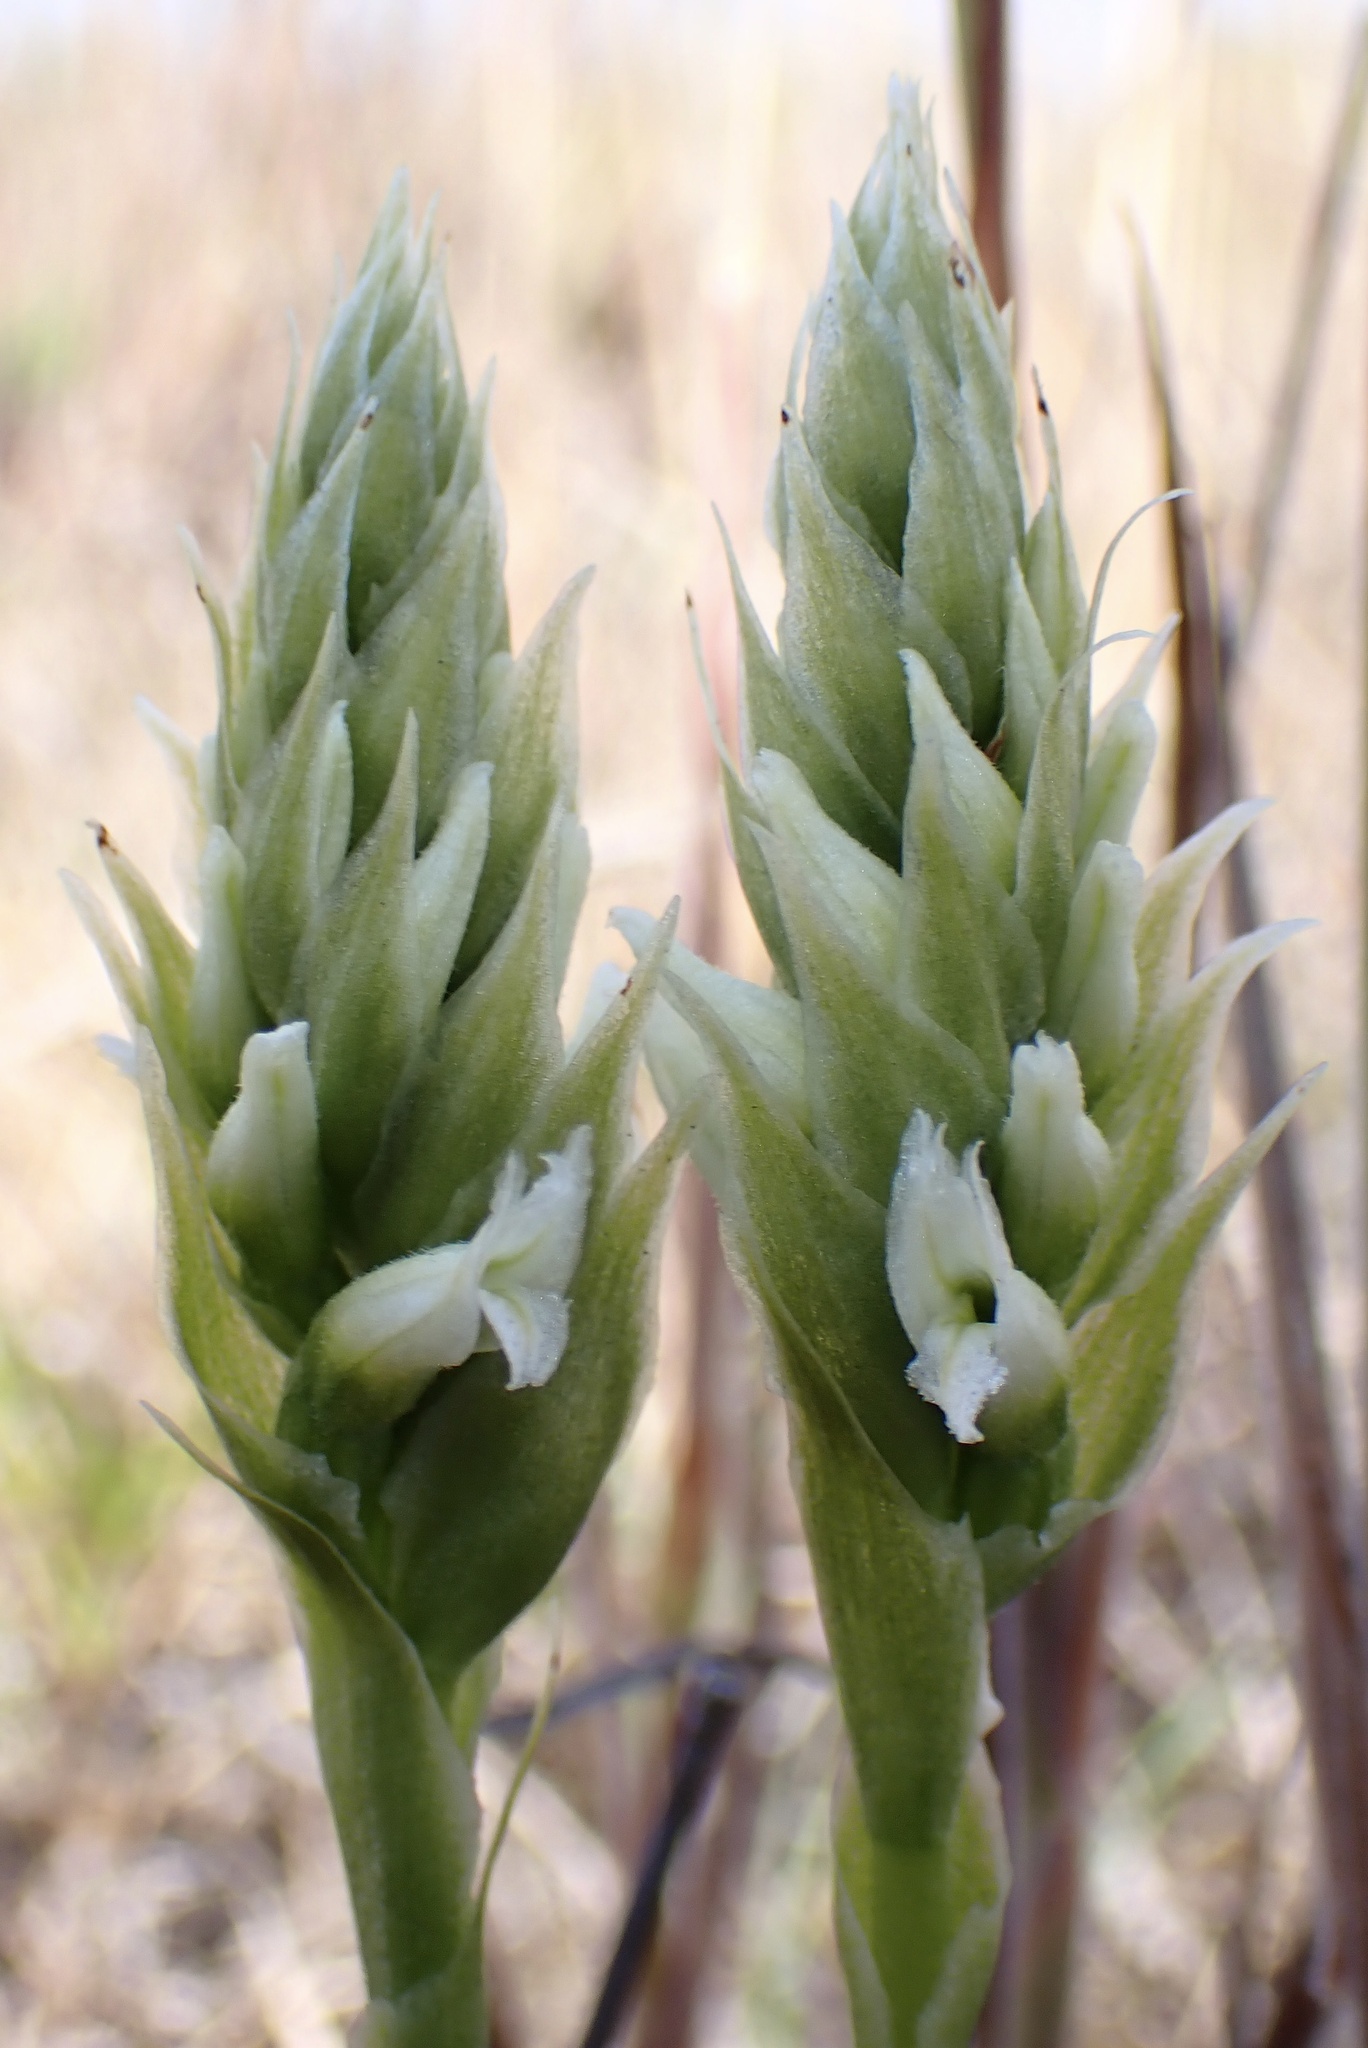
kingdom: Plantae
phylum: Tracheophyta
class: Liliopsida
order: Asparagales
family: Orchidaceae
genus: Spiranthes
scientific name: Spiranthes romanzoffiana
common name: Irish lady's-tresses
